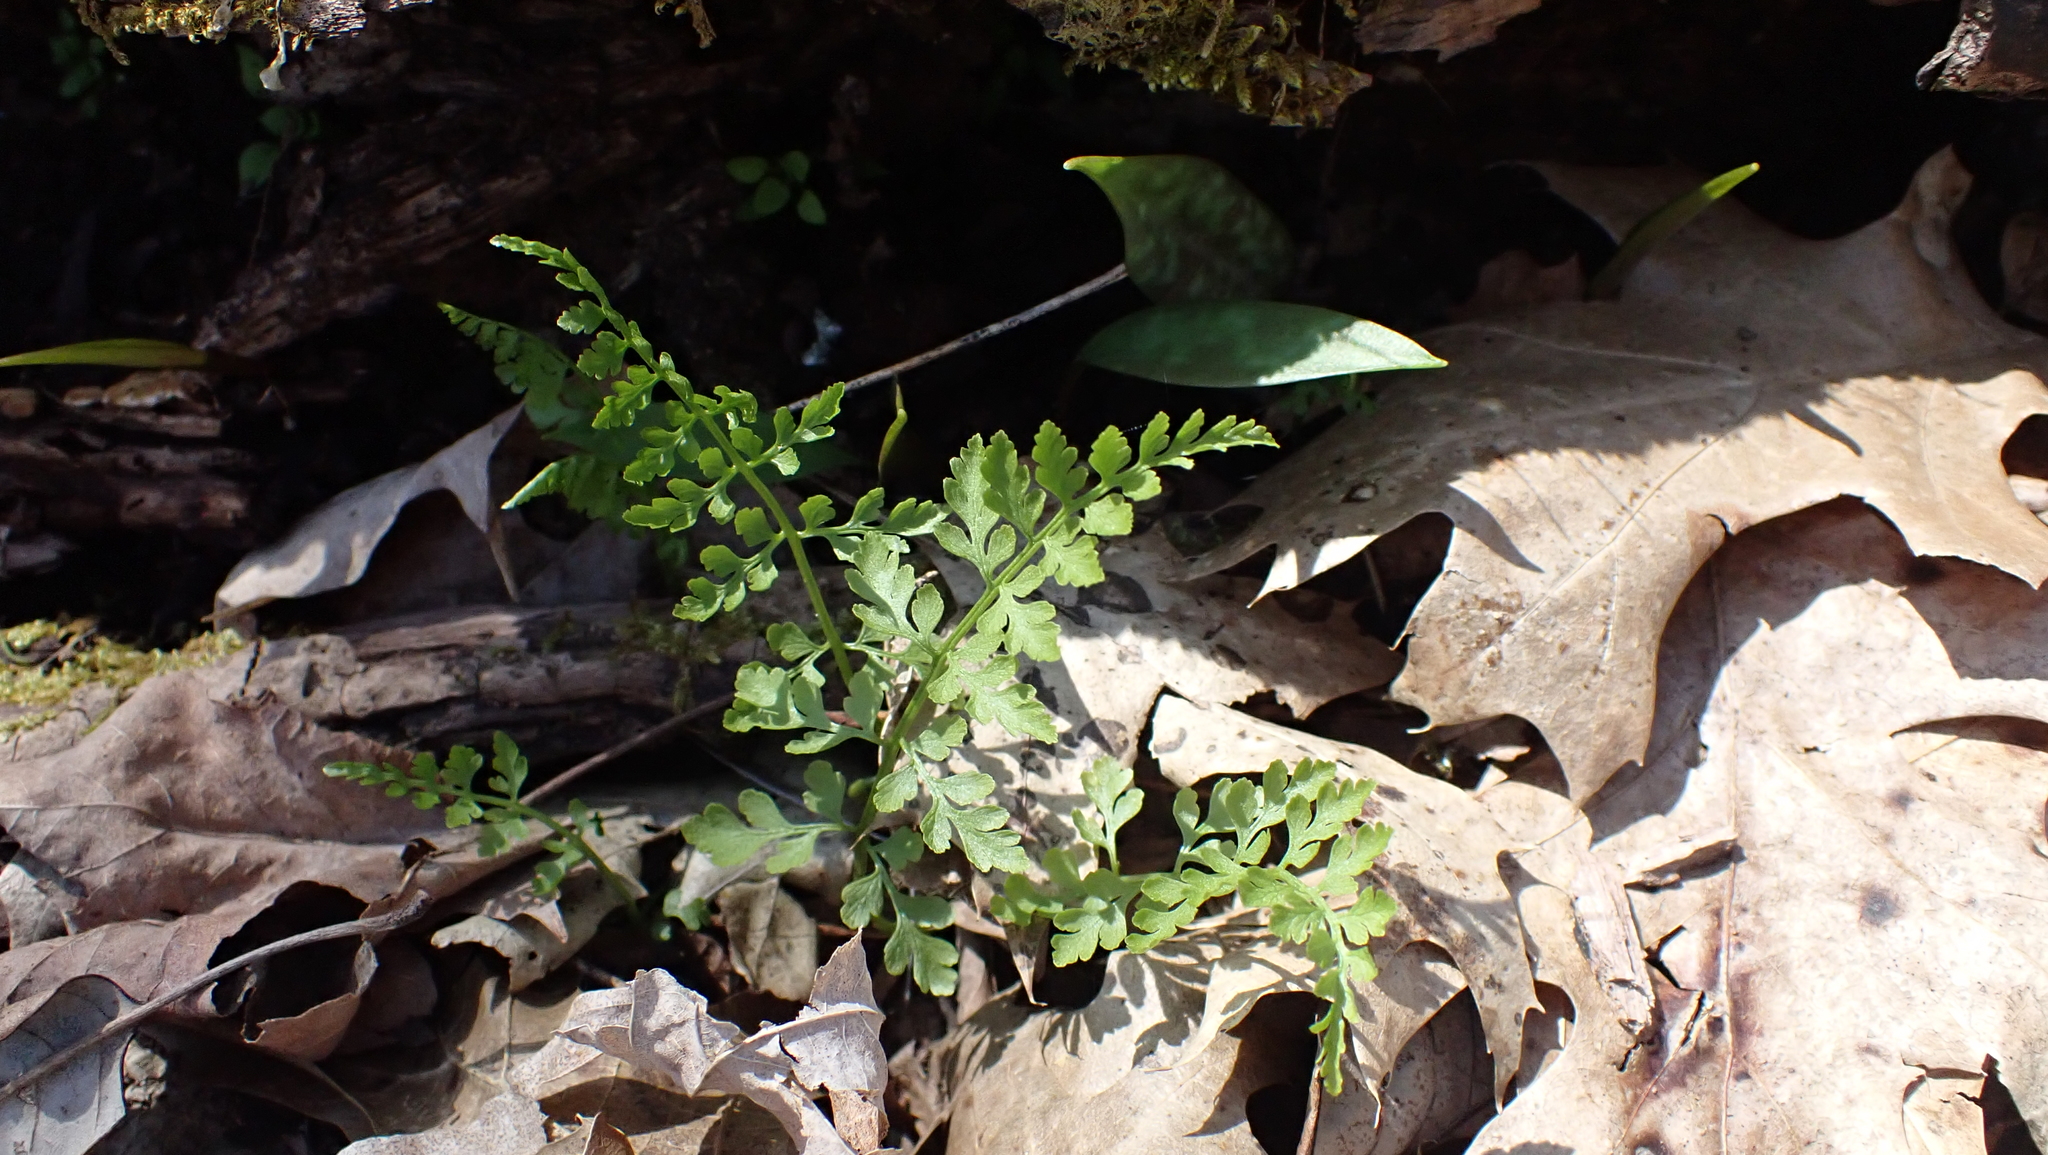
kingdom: Plantae
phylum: Tracheophyta
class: Polypodiopsida
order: Polypodiales
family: Cystopteridaceae
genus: Cystopteris
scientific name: Cystopteris protrusa
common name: Lowland brittle fern
